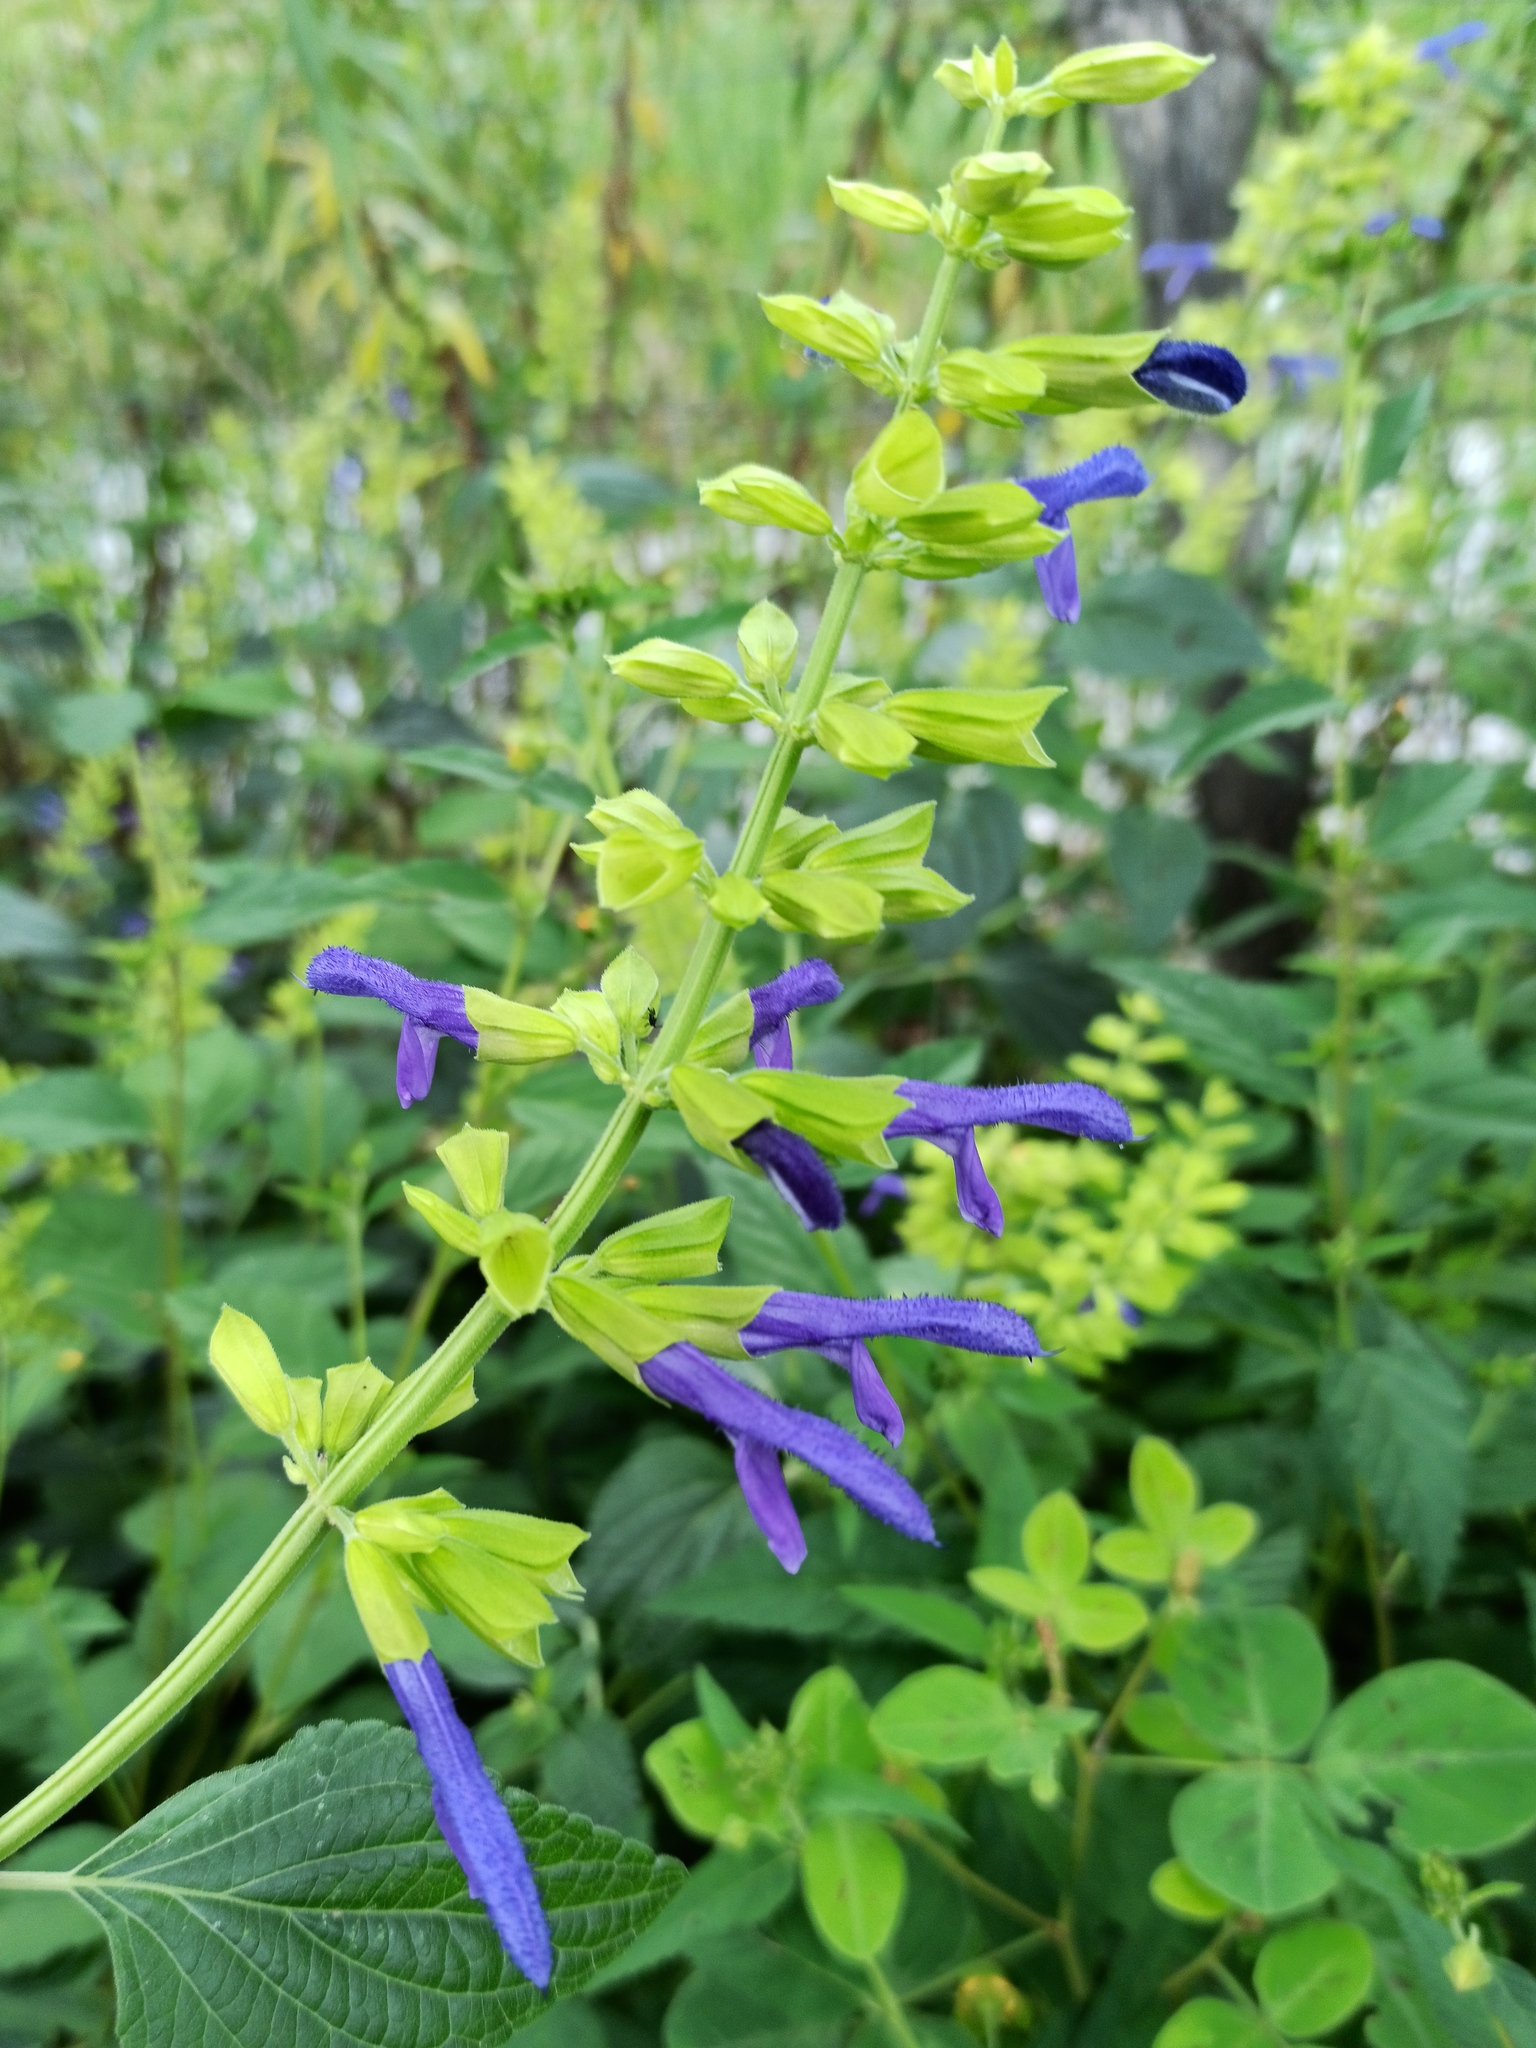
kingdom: Plantae
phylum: Tracheophyta
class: Magnoliopsida
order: Lamiales
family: Lamiaceae
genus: Salvia
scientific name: Salvia mexicana
